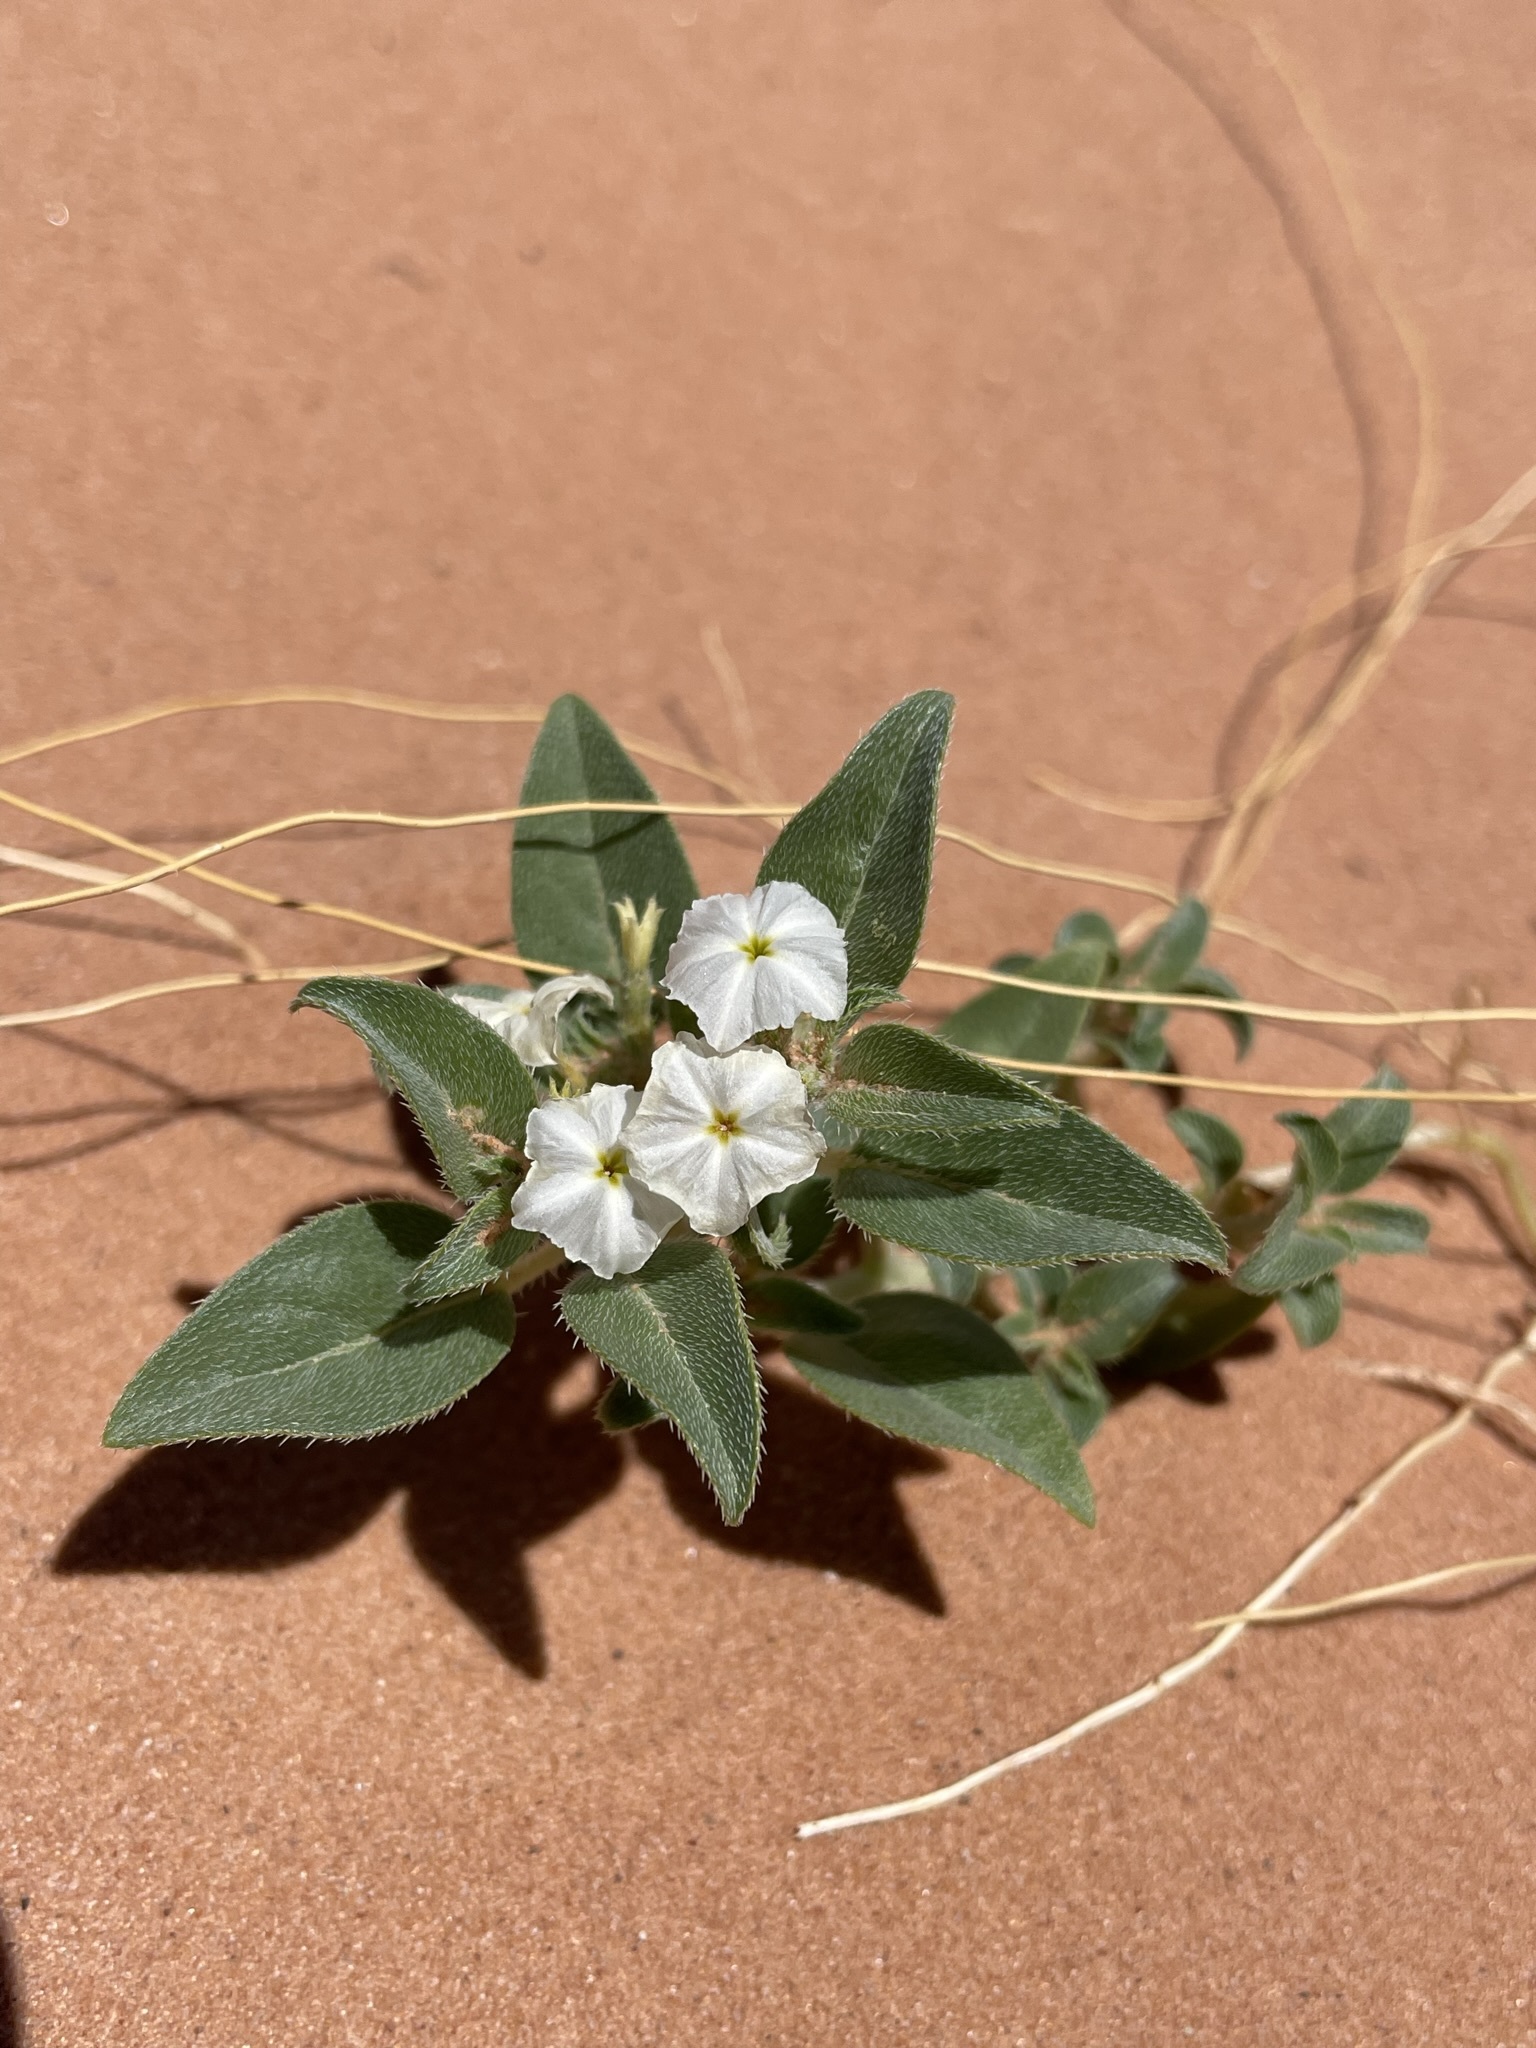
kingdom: Plantae
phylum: Tracheophyta
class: Magnoliopsida
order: Boraginales
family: Heliotropiaceae
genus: Euploca
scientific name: Euploca convolvulacea
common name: Bindweed heliotrope
